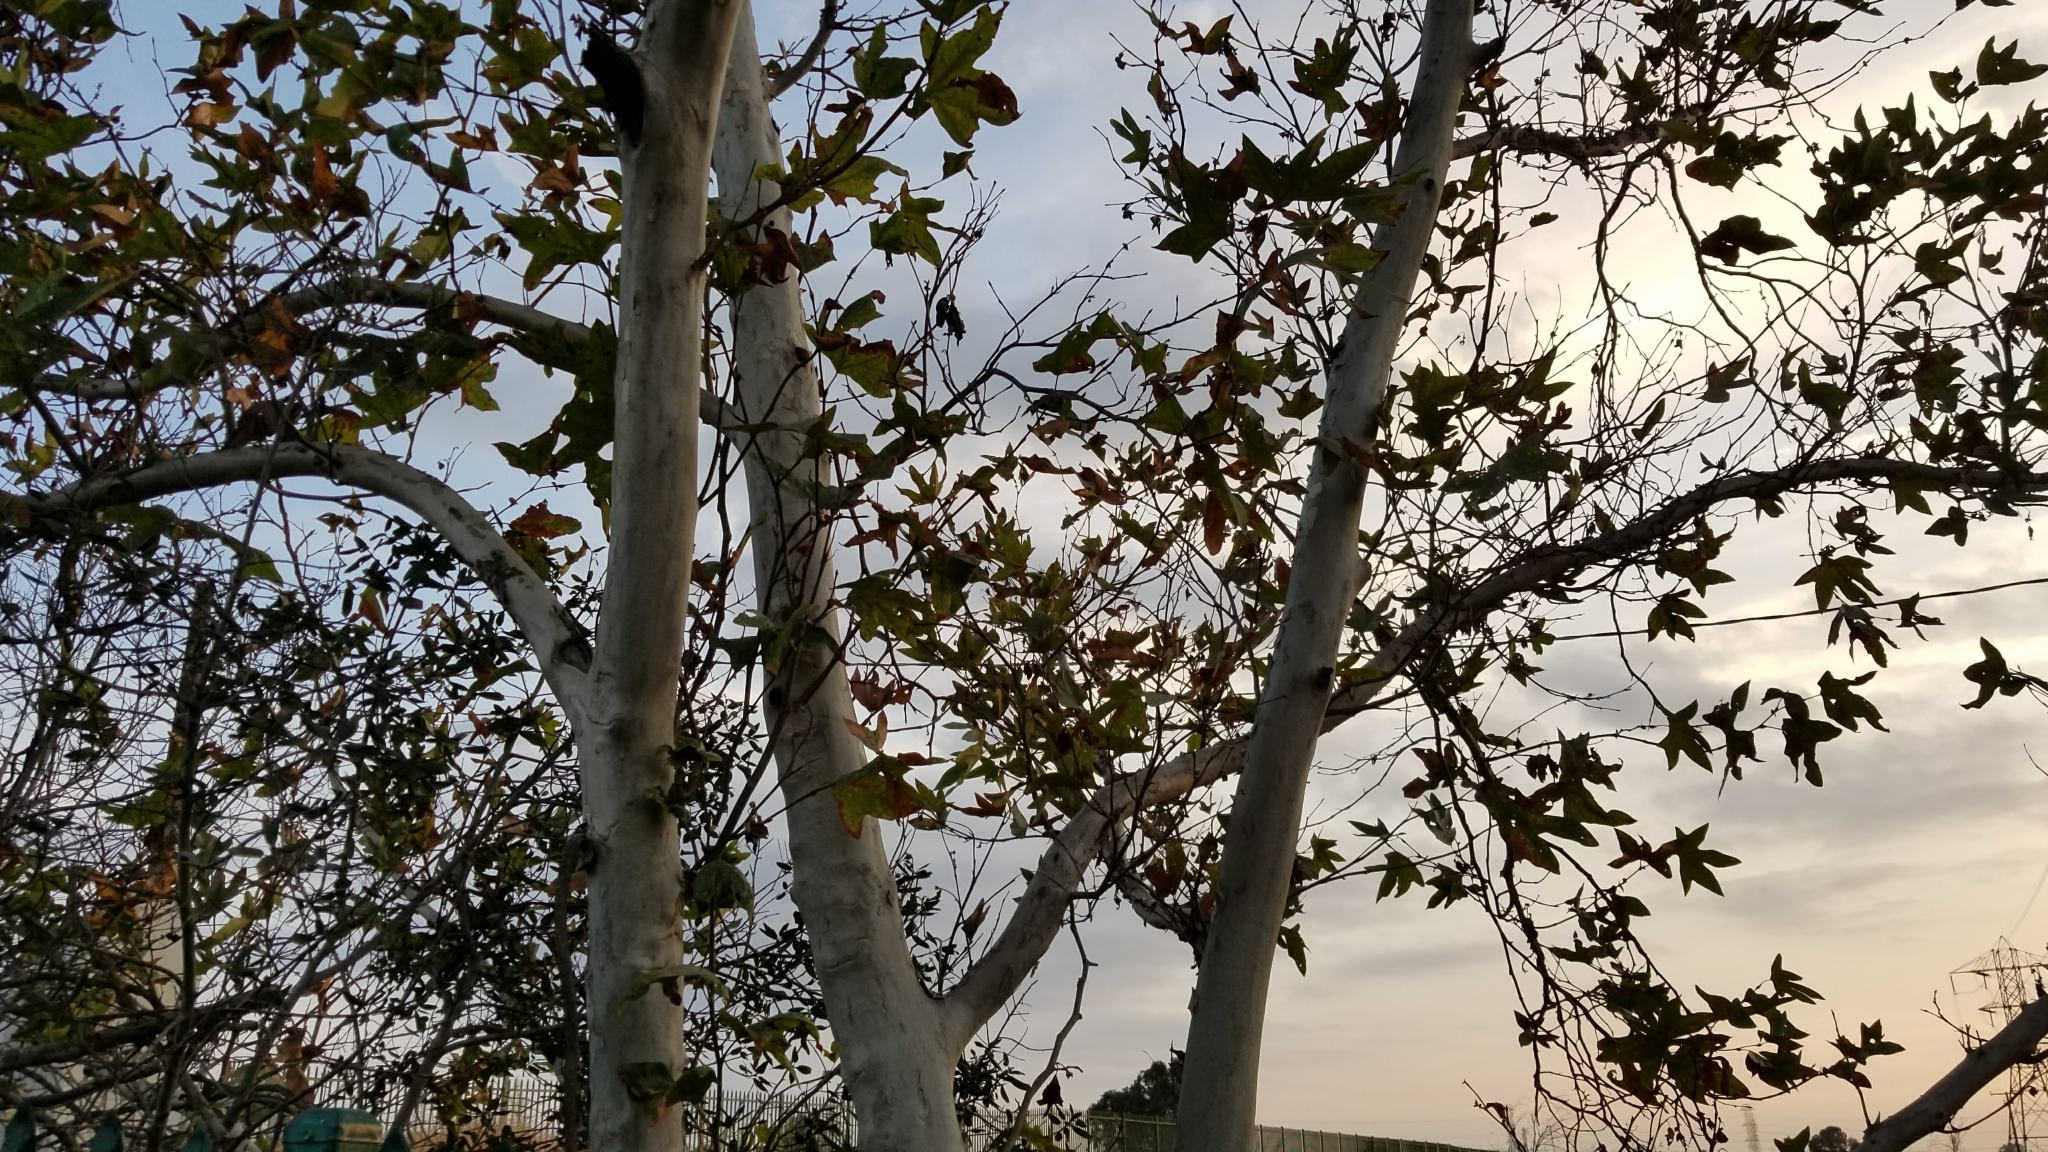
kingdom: Plantae
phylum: Tracheophyta
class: Magnoliopsida
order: Proteales
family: Platanaceae
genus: Platanus
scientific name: Platanus racemosa
